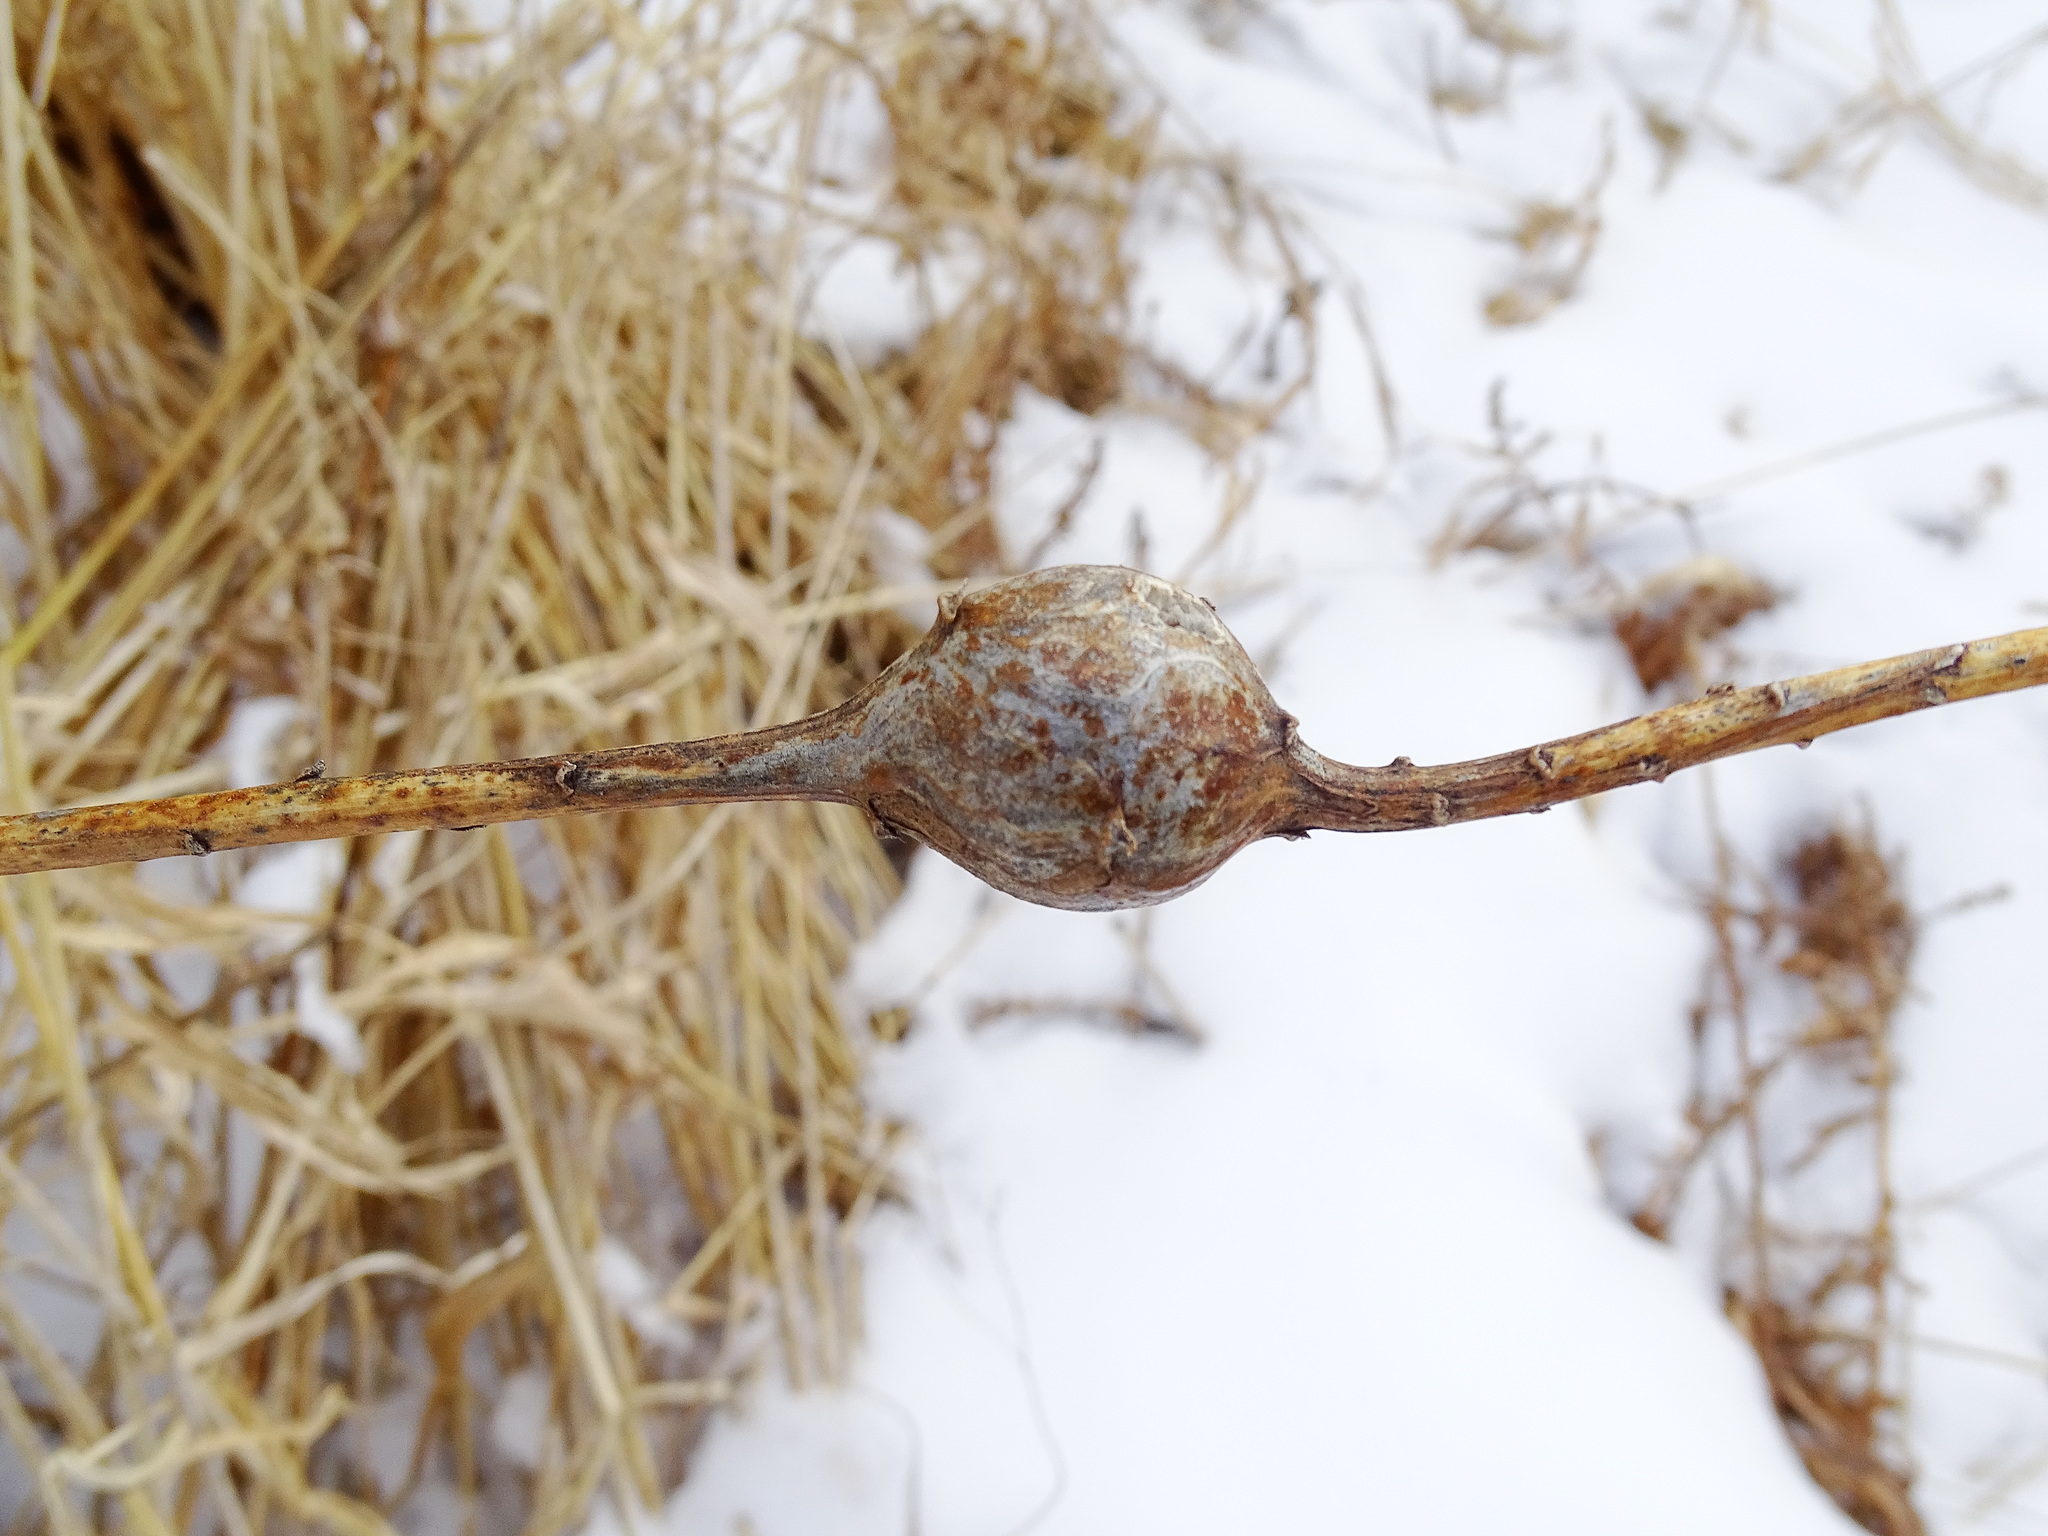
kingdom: Animalia
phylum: Arthropoda
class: Insecta
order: Diptera
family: Tephritidae
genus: Eurosta
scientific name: Eurosta solidaginis
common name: Goldenrod gall fly
